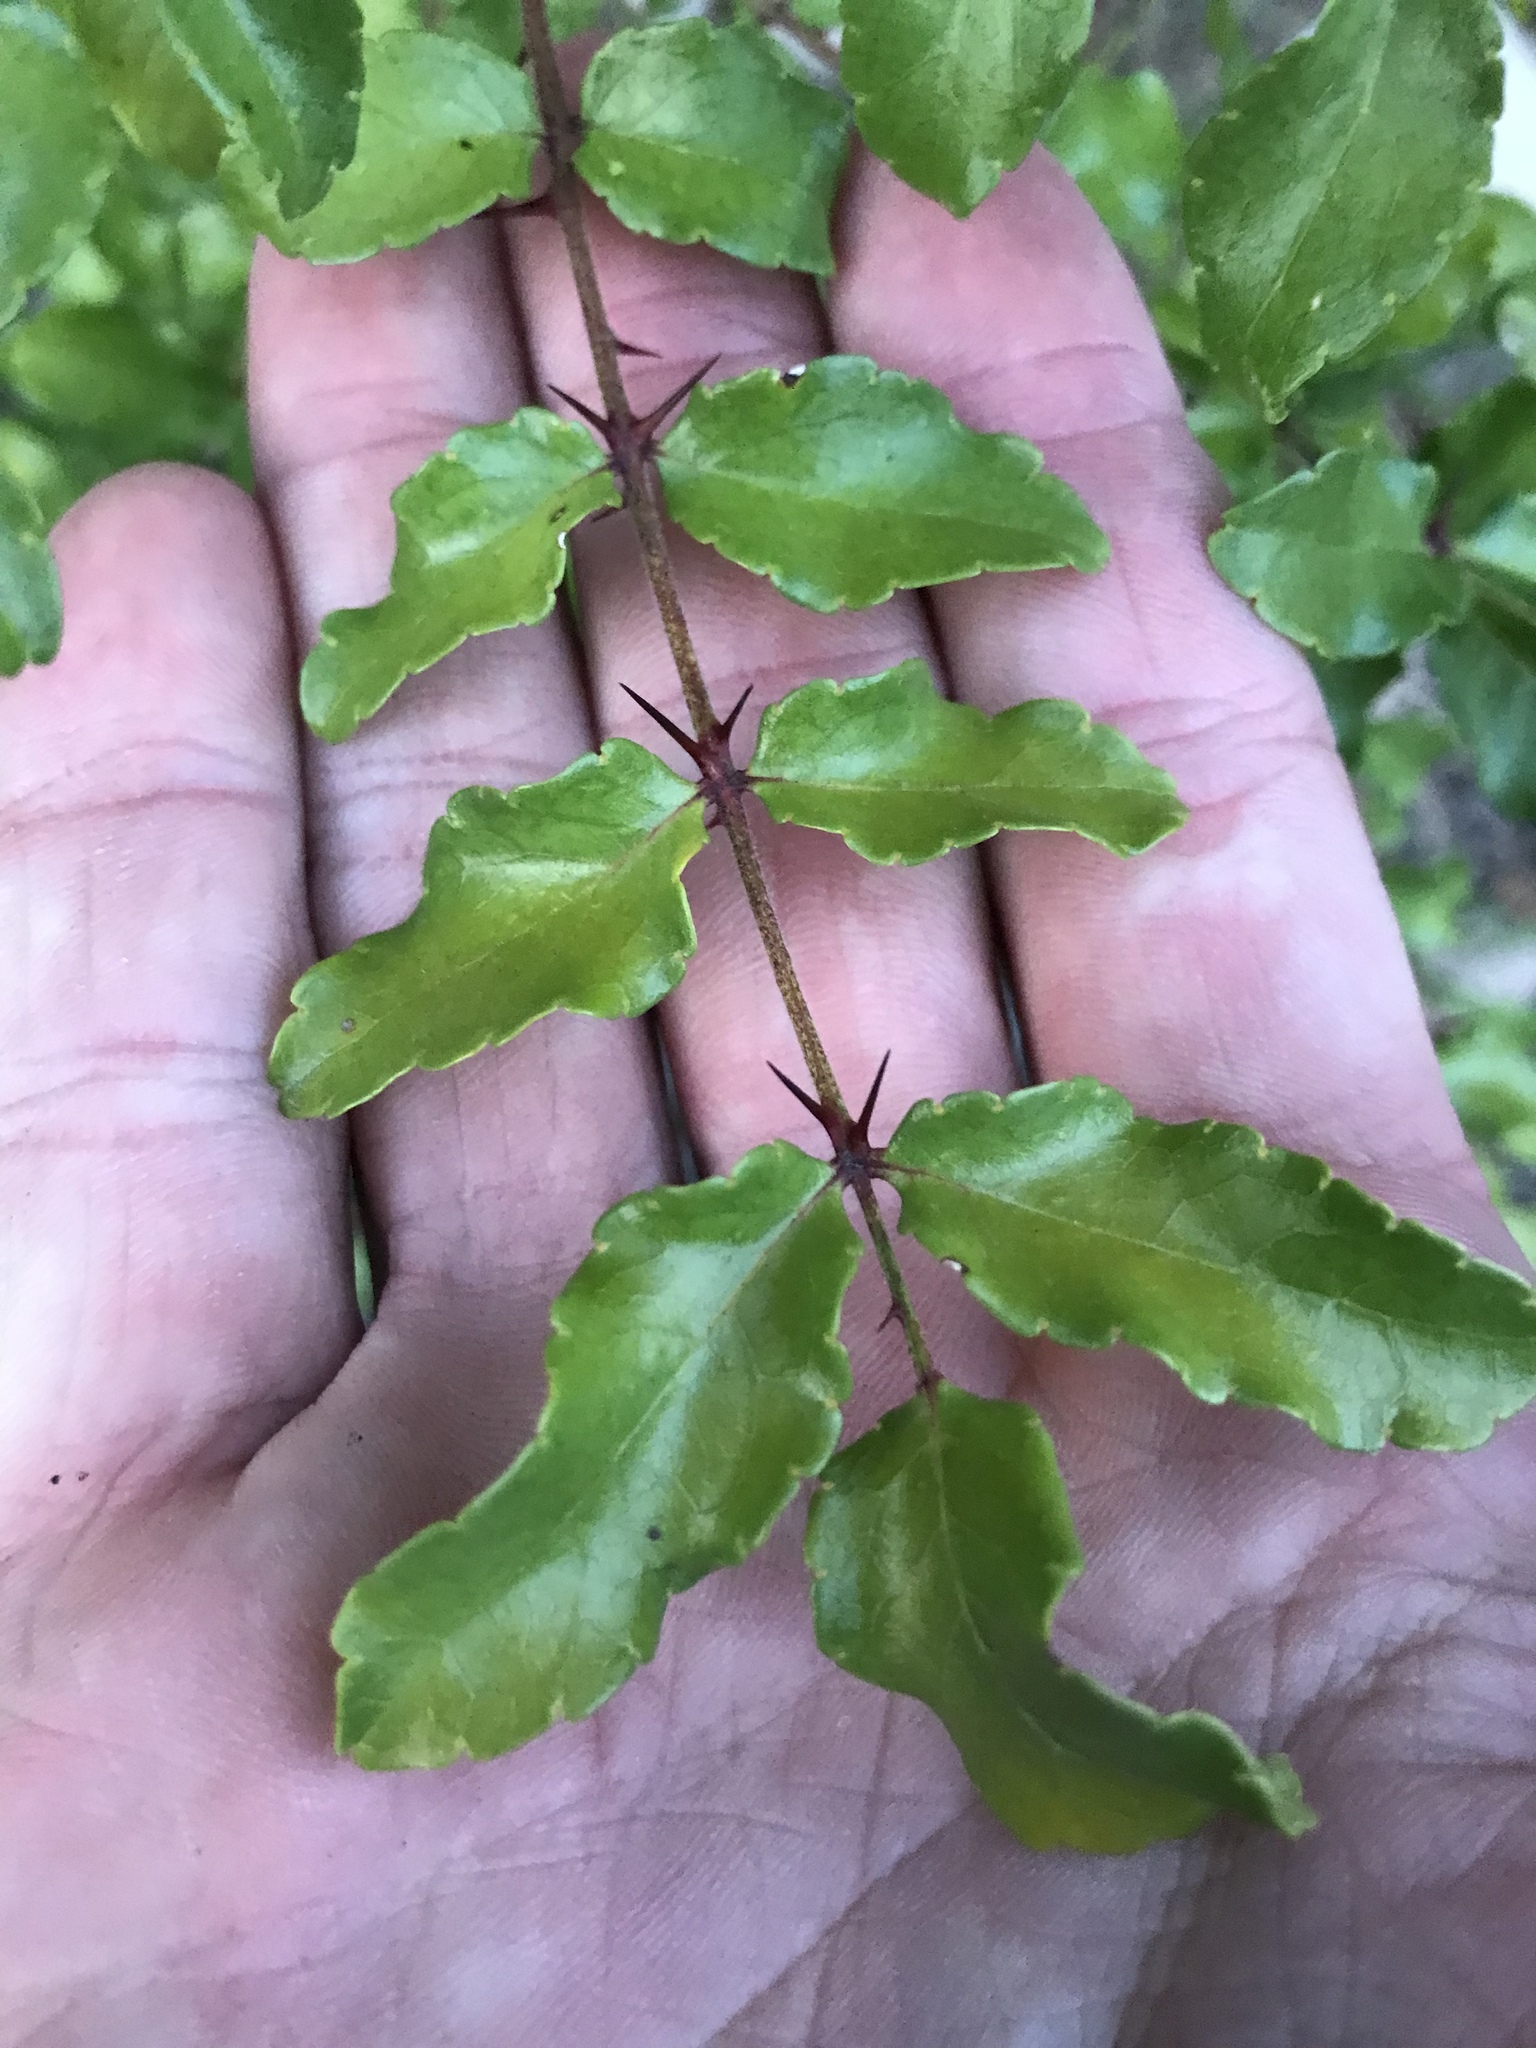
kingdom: Plantae
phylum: Tracheophyta
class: Magnoliopsida
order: Sapindales
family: Rutaceae
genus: Zanthoxylum
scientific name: Zanthoxylum clava-herculis
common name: Hercules'-club
